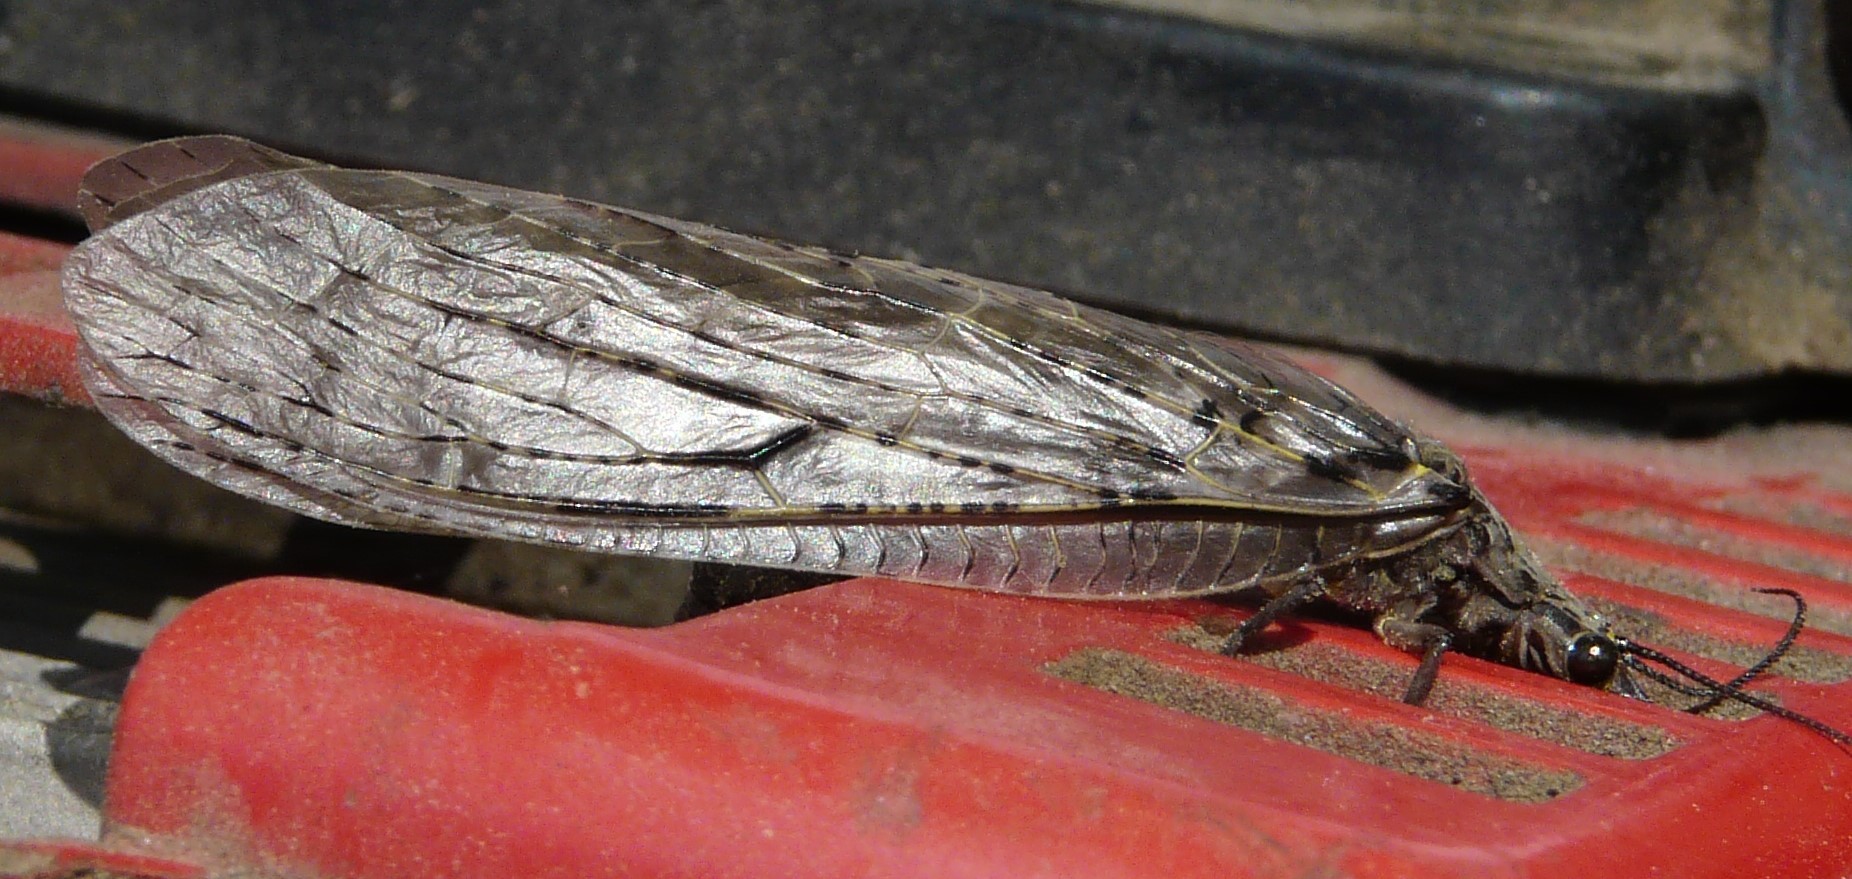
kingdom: Animalia
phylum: Arthropoda
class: Insecta
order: Megaloptera
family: Corydalidae
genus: Chauliodes
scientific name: Chauliodes rastricornis
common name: Spring fishfly
